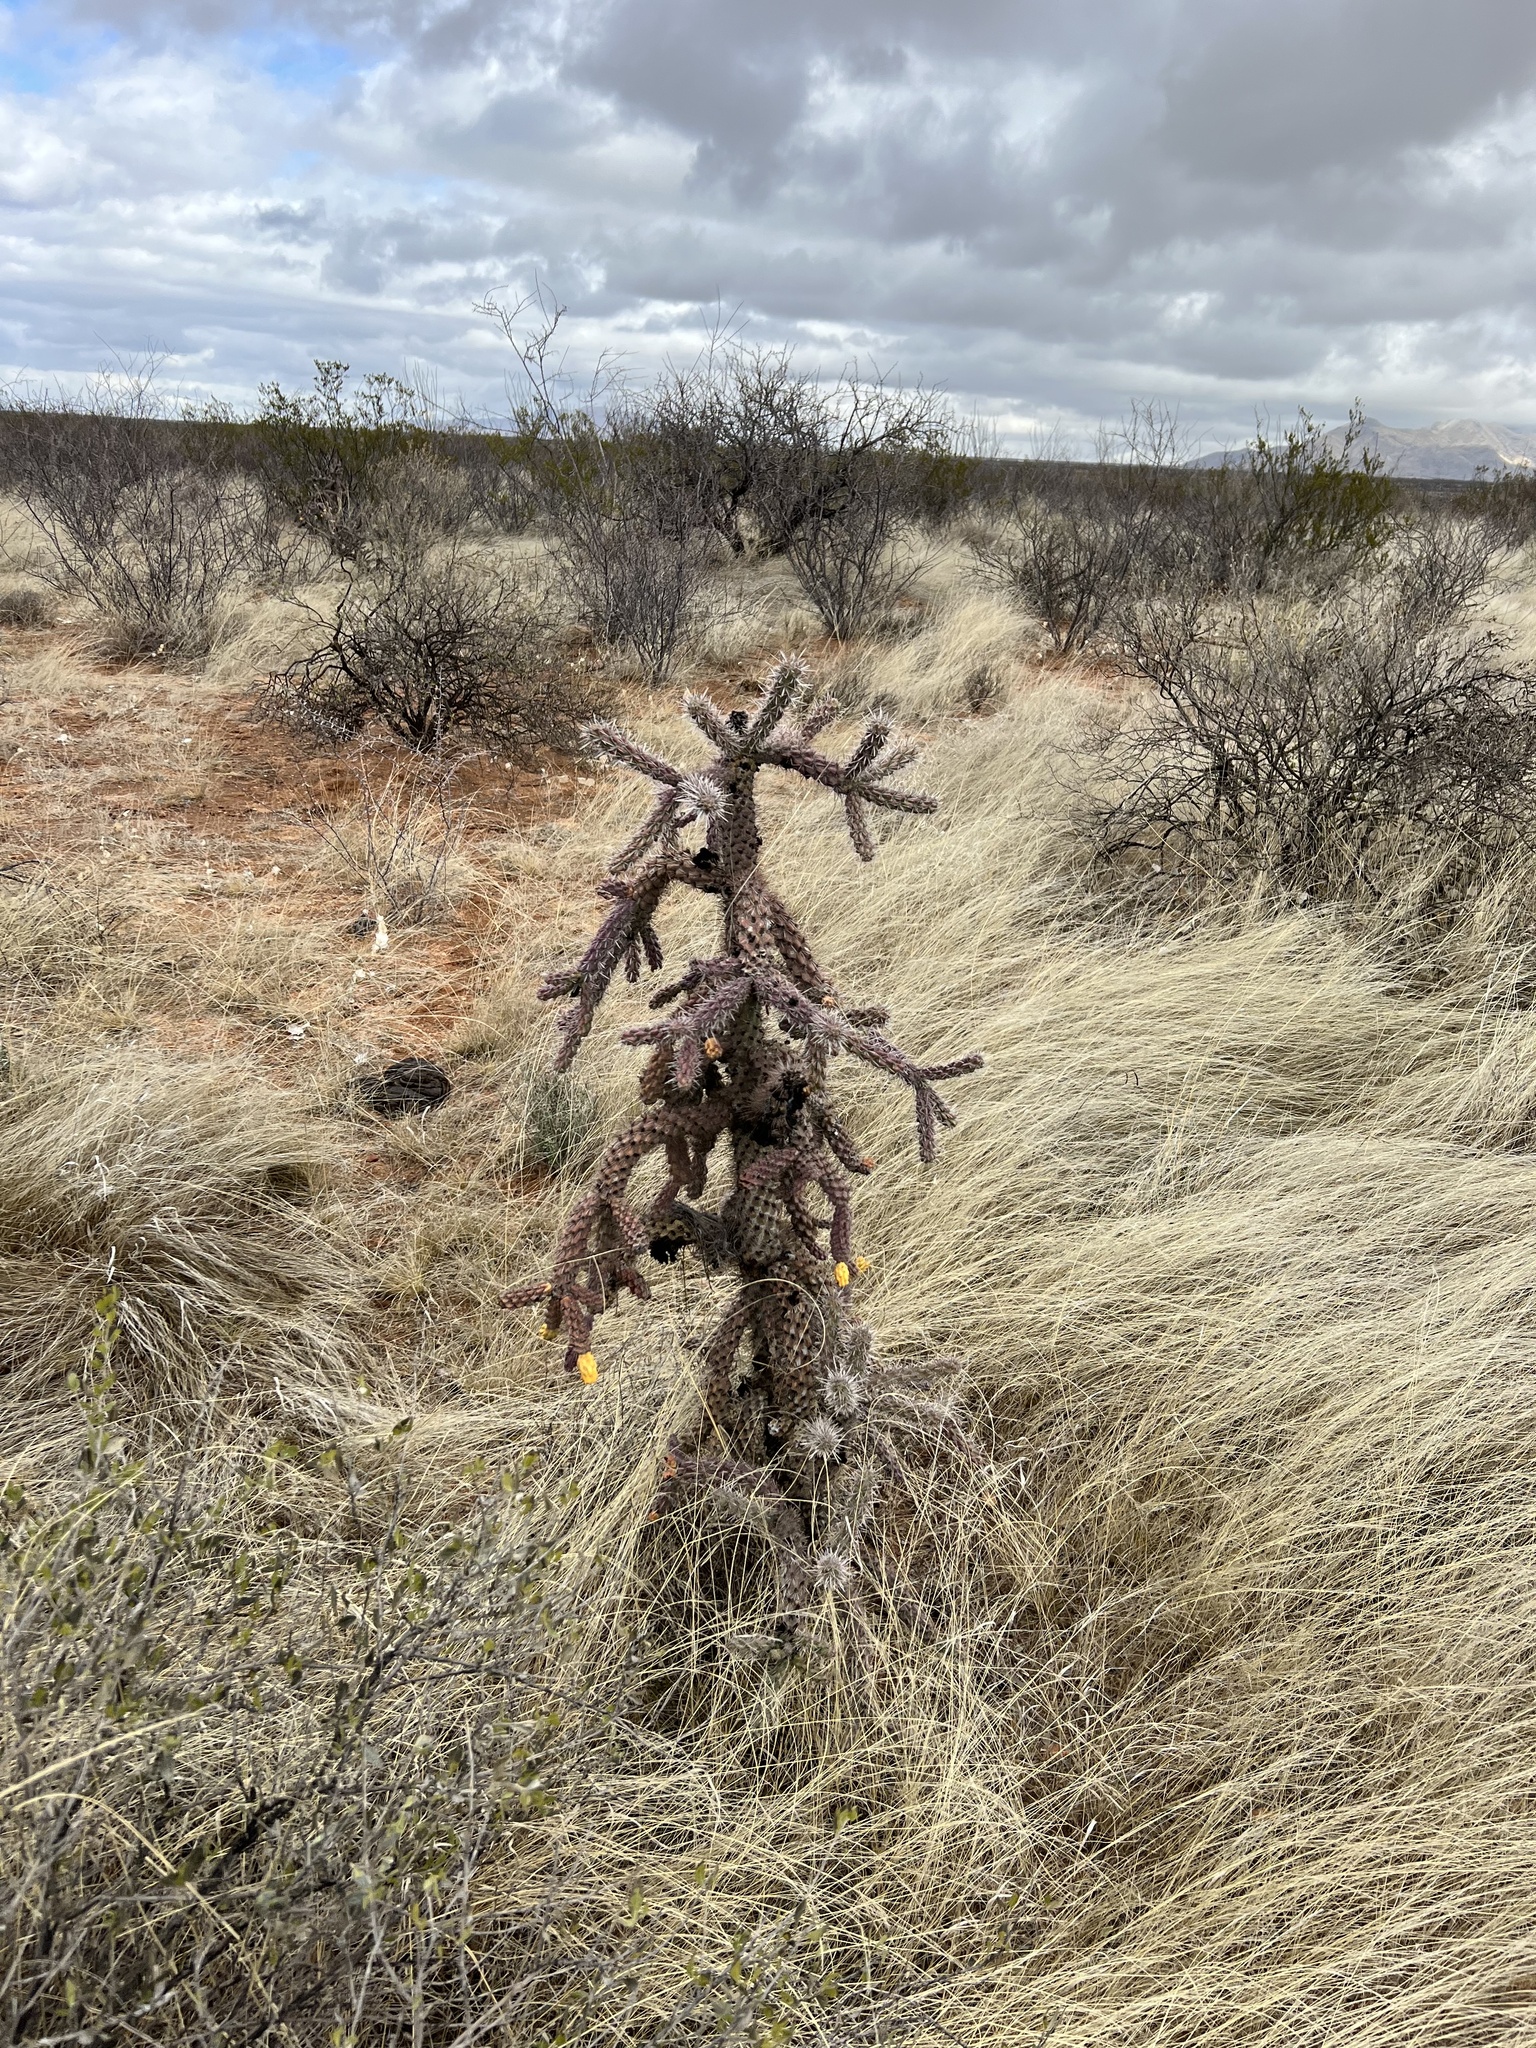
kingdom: Plantae
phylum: Tracheophyta
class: Magnoliopsida
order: Caryophyllales
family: Cactaceae
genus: Cylindropuntia
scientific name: Cylindropuntia imbricata
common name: Candelabrum cactus
